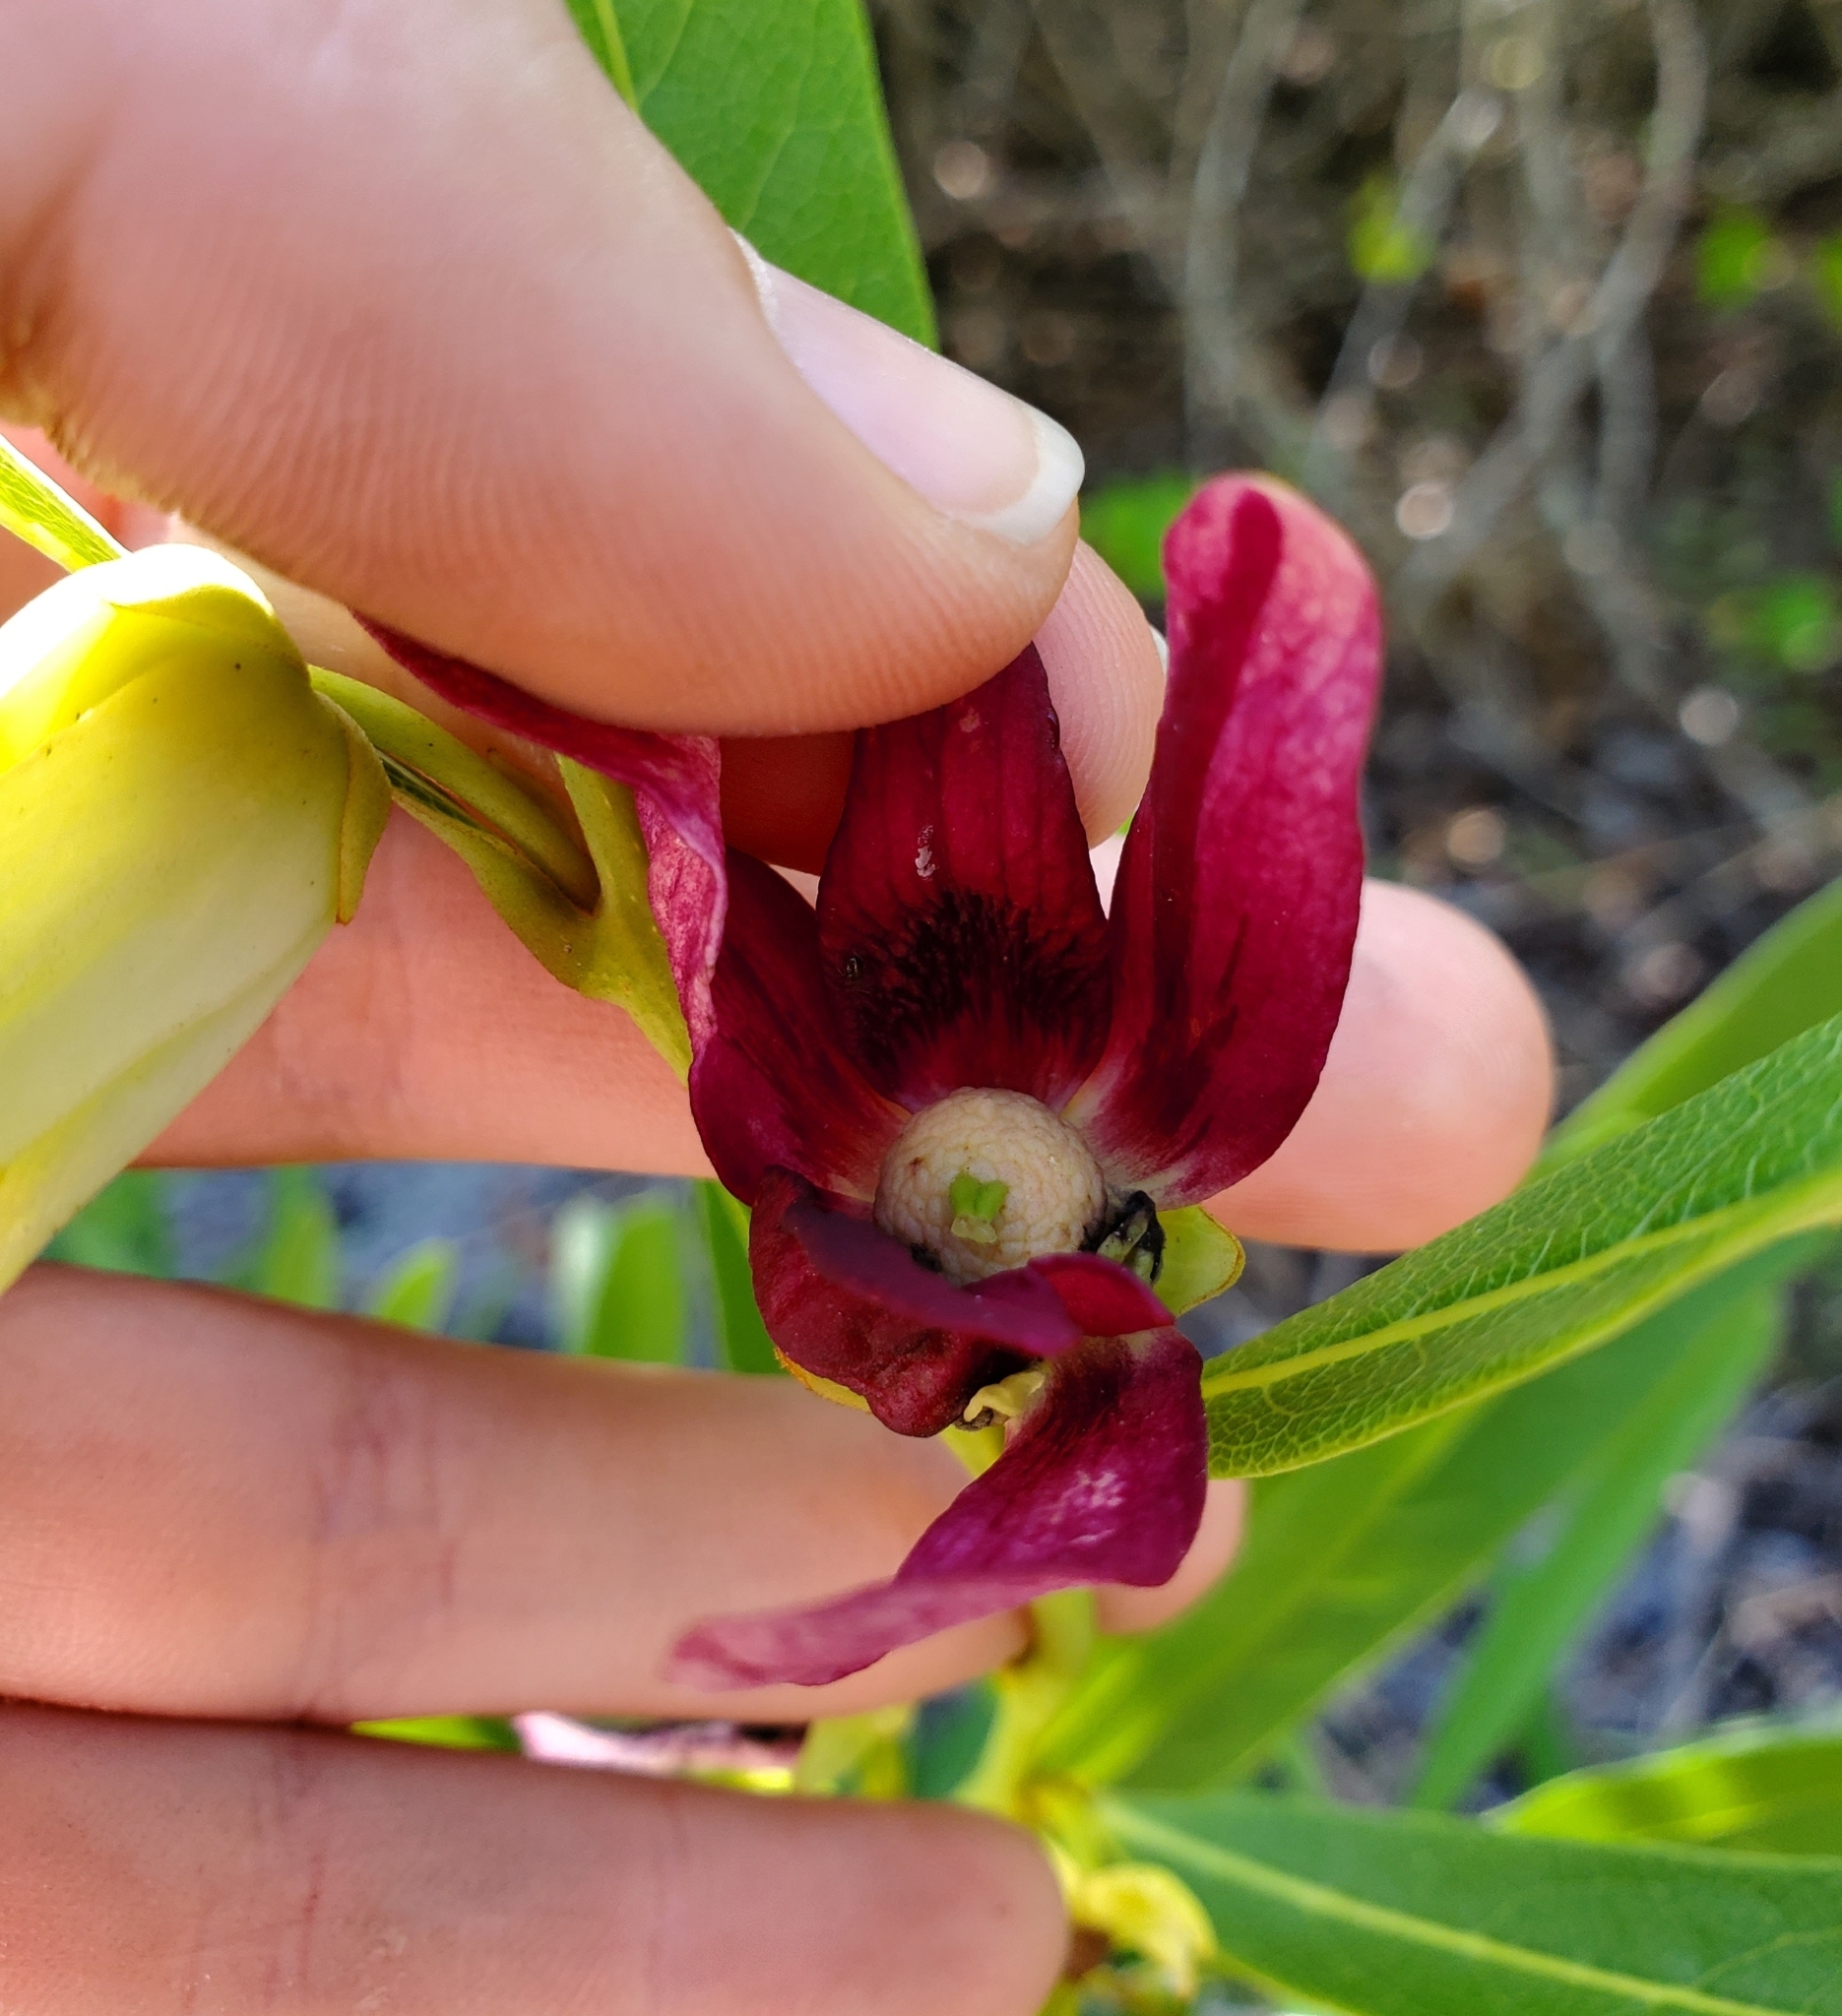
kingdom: Plantae
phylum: Tracheophyta
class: Magnoliopsida
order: Magnoliales
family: Annonaceae
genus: Asimina
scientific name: Asimina pygmaea
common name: Dwarf pawpaw
